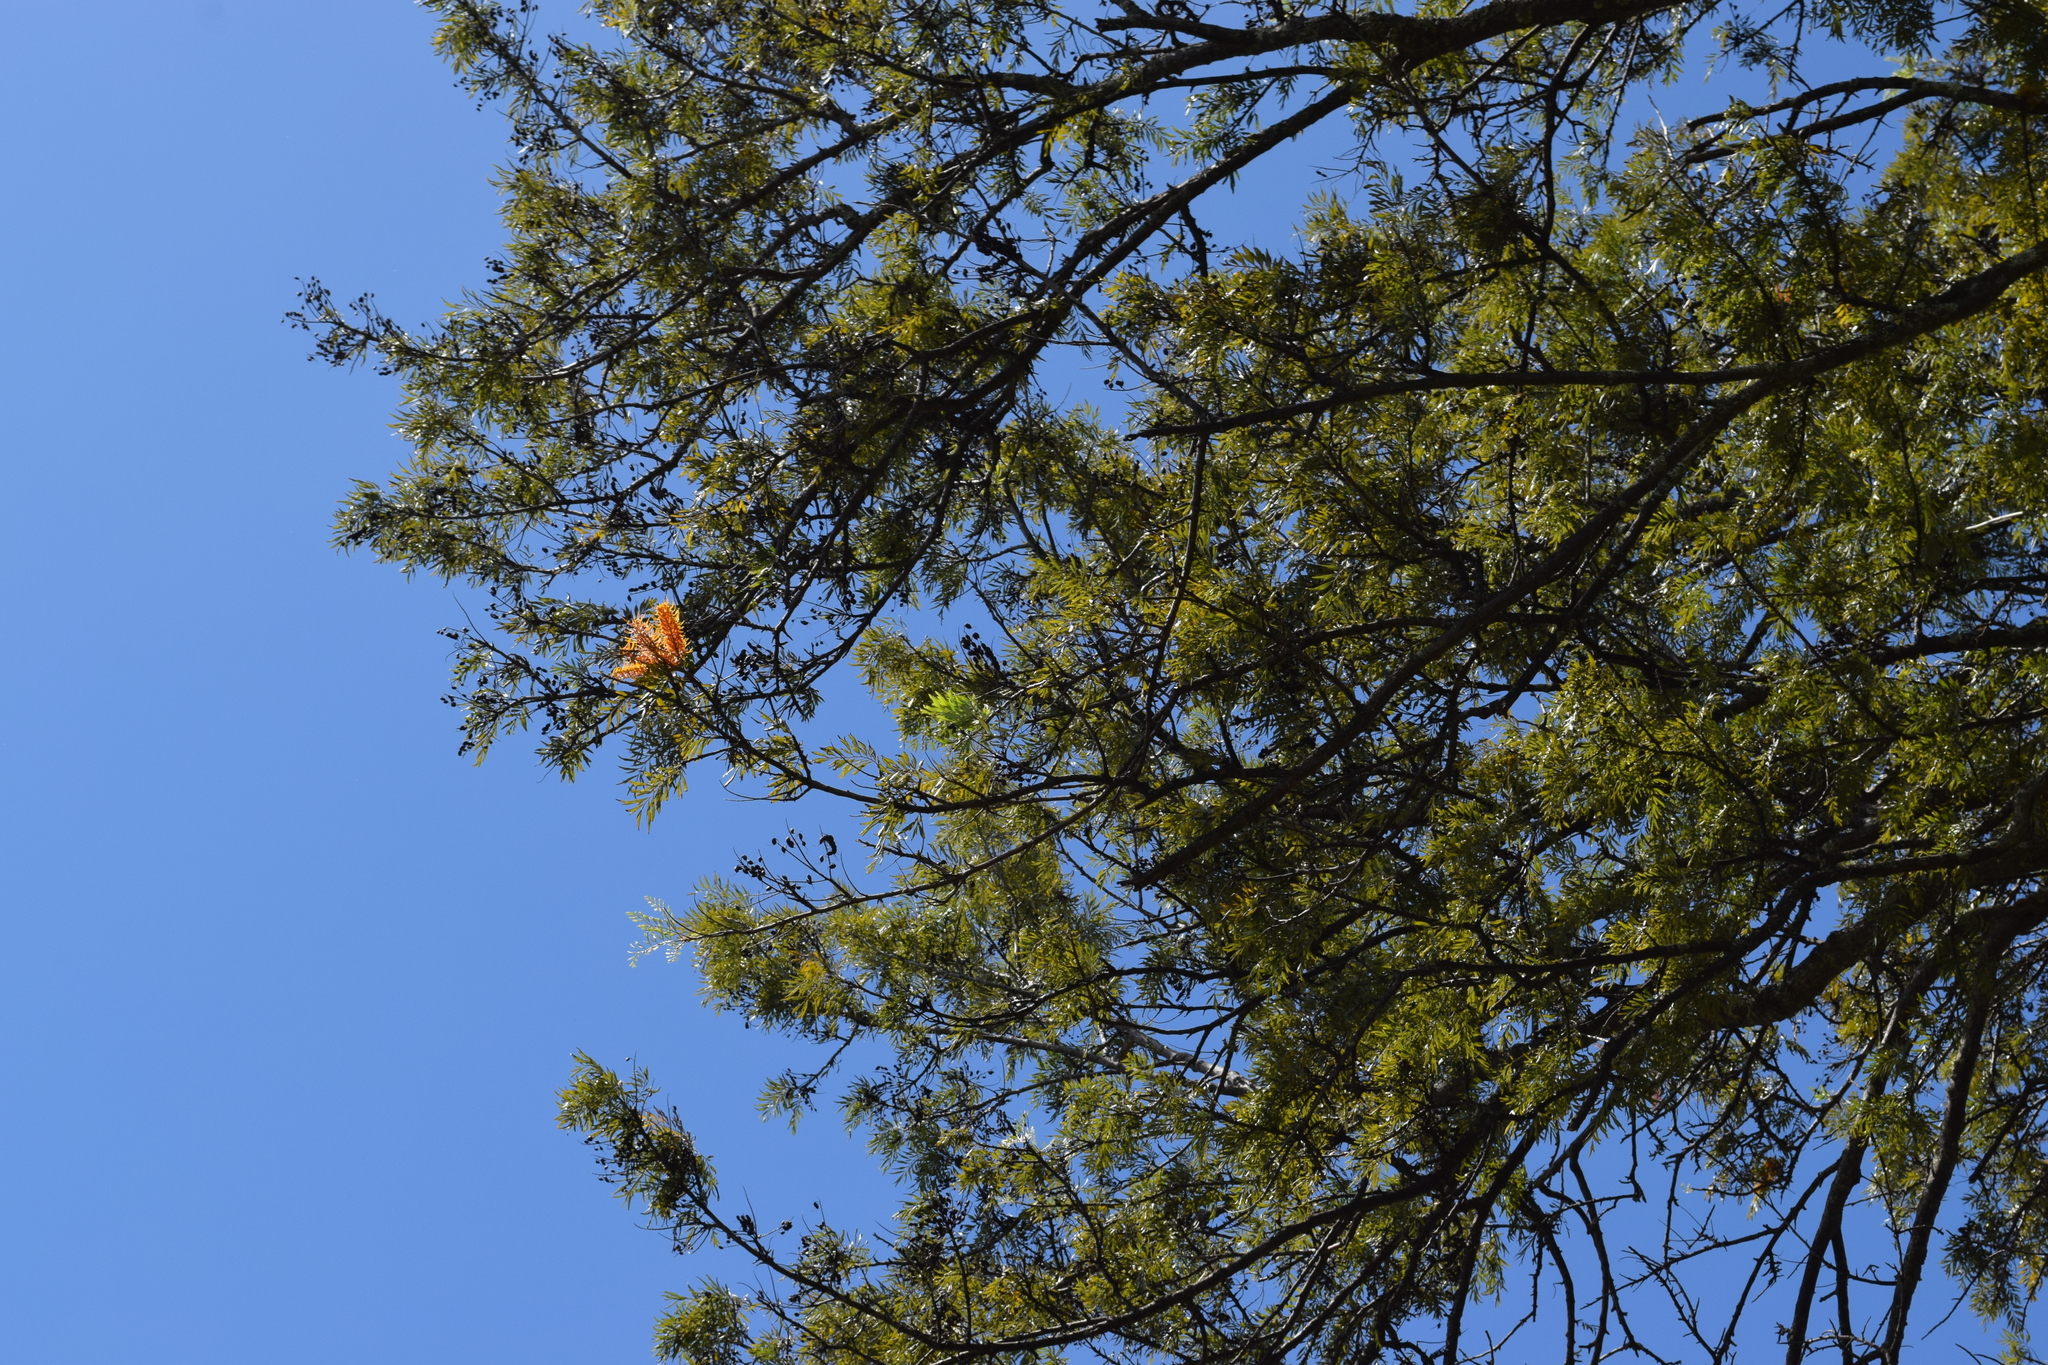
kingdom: Plantae
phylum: Tracheophyta
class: Magnoliopsida
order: Proteales
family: Proteaceae
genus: Grevillea
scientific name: Grevillea robusta
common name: Silkoak
